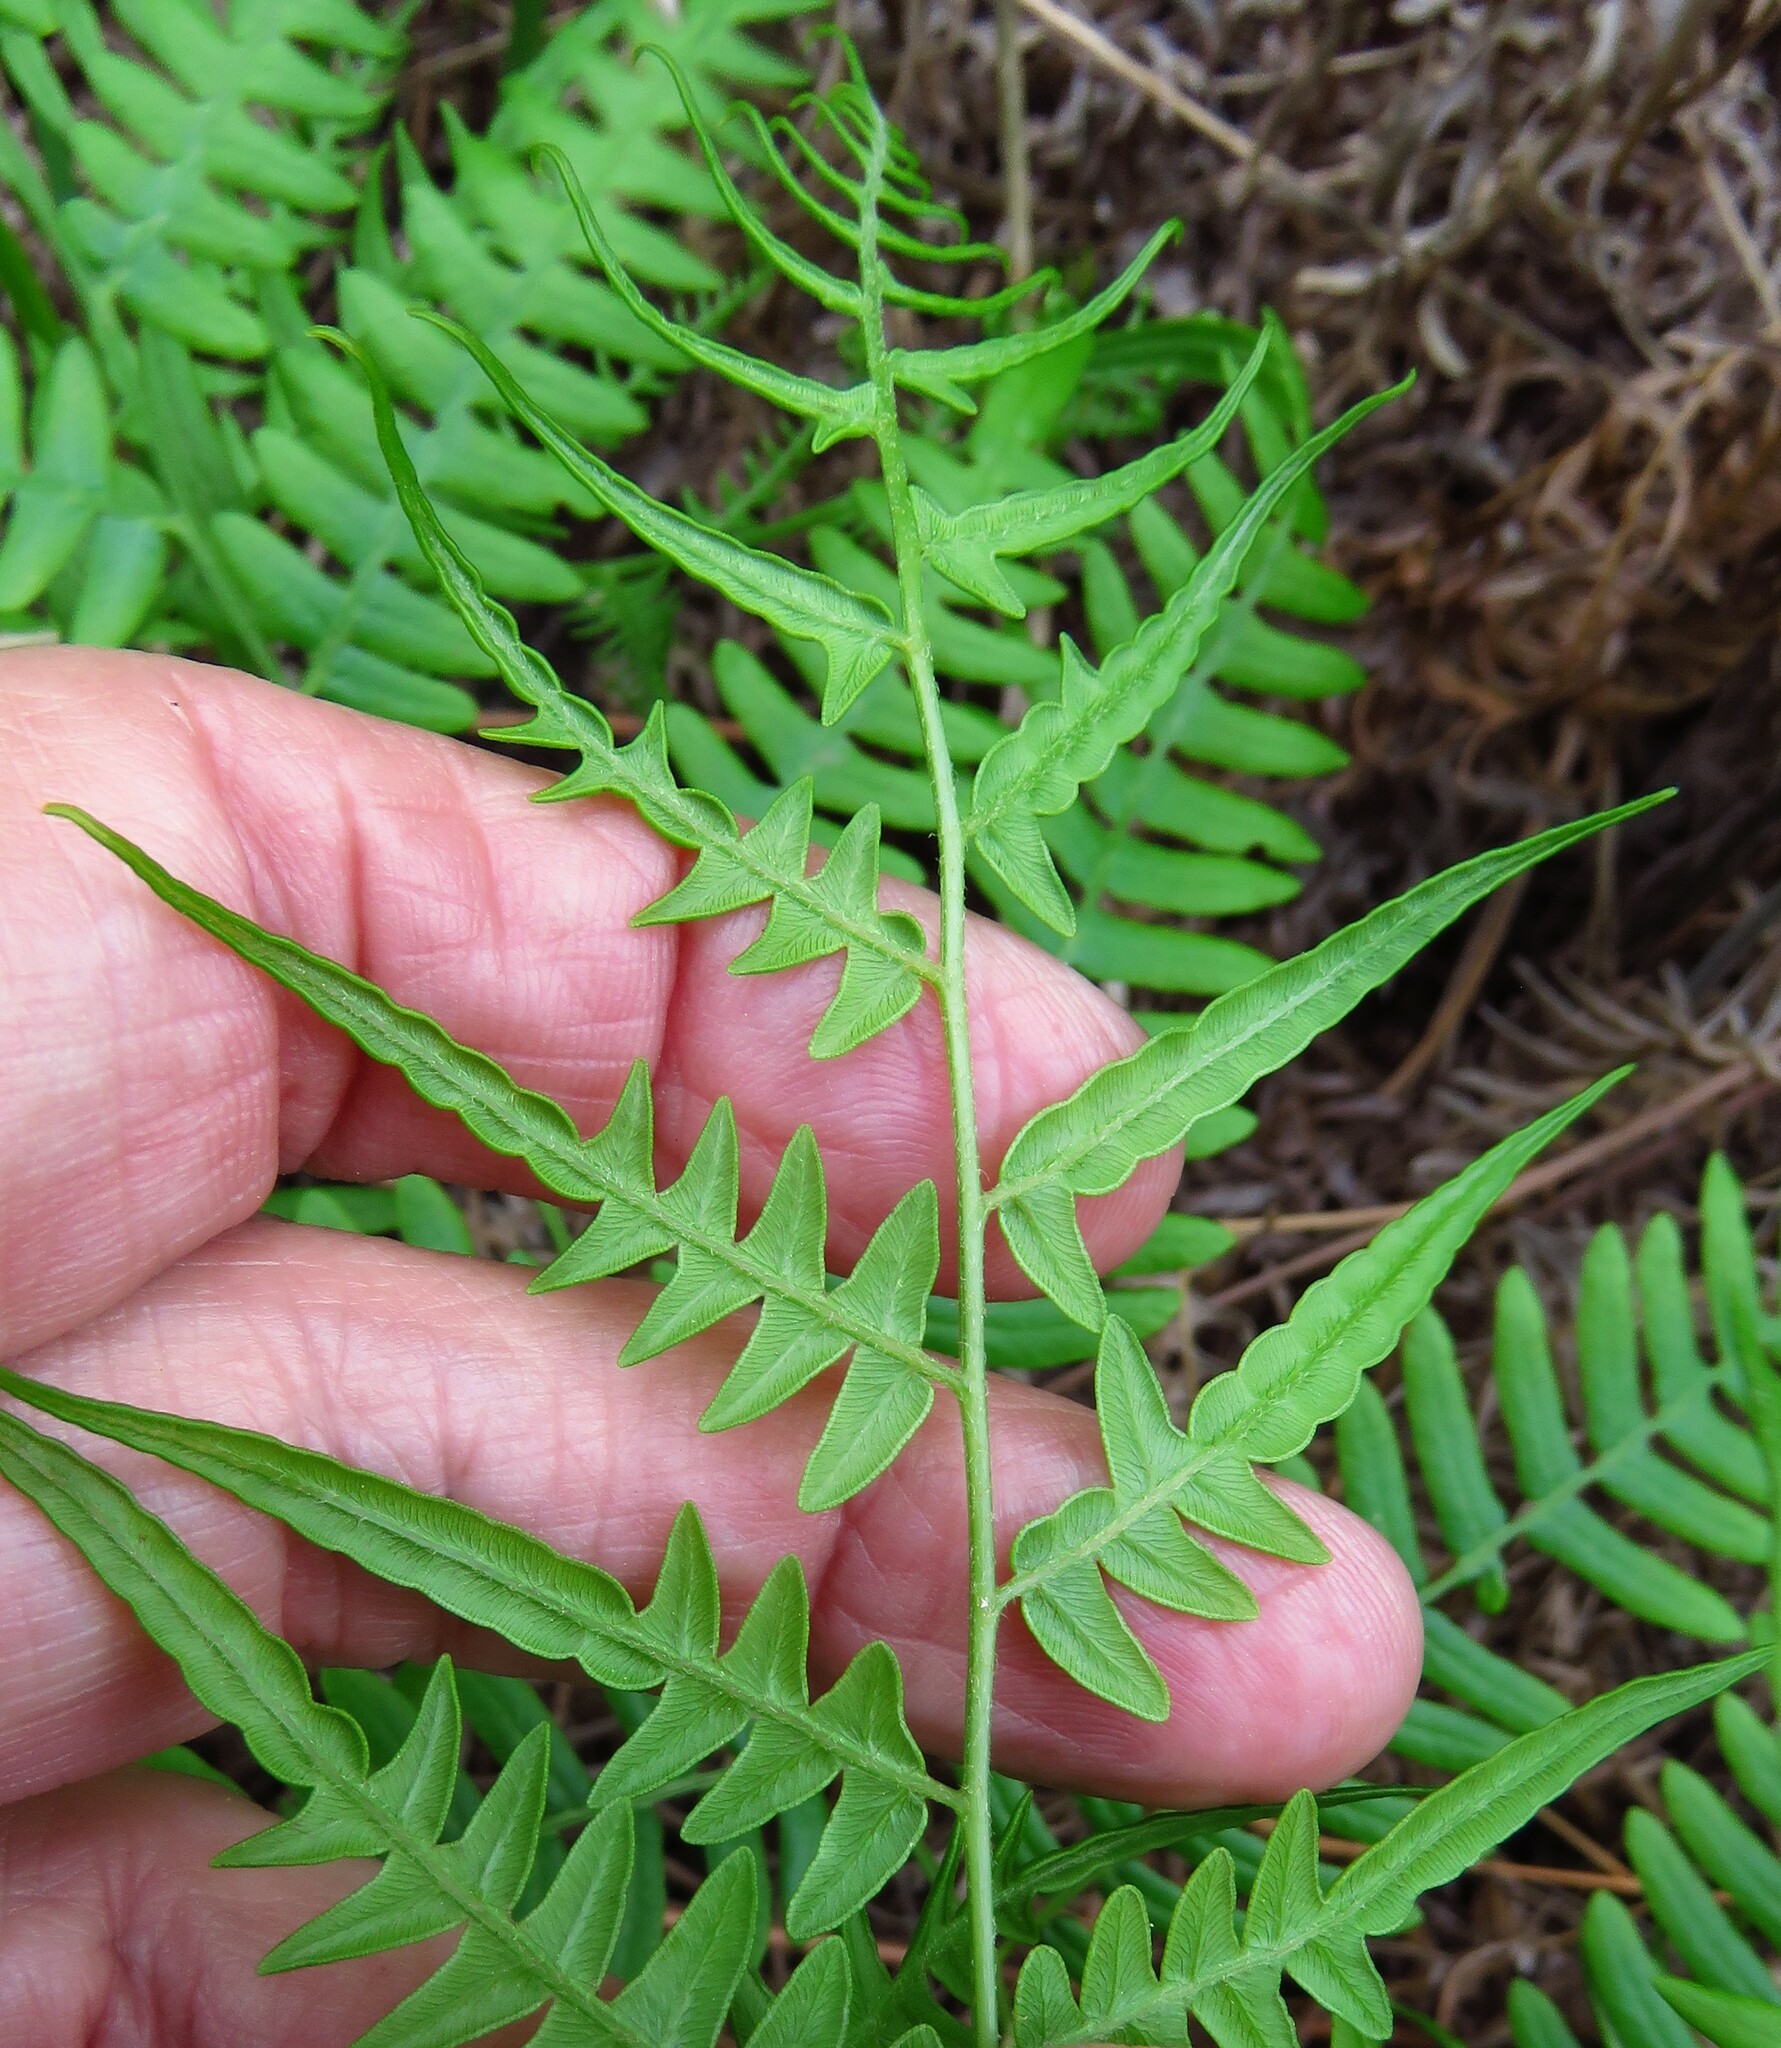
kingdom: Plantae
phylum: Tracheophyta
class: Polypodiopsida
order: Polypodiales
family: Dennstaedtiaceae
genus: Pteridium
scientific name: Pteridium aquilinum
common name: Bracken
